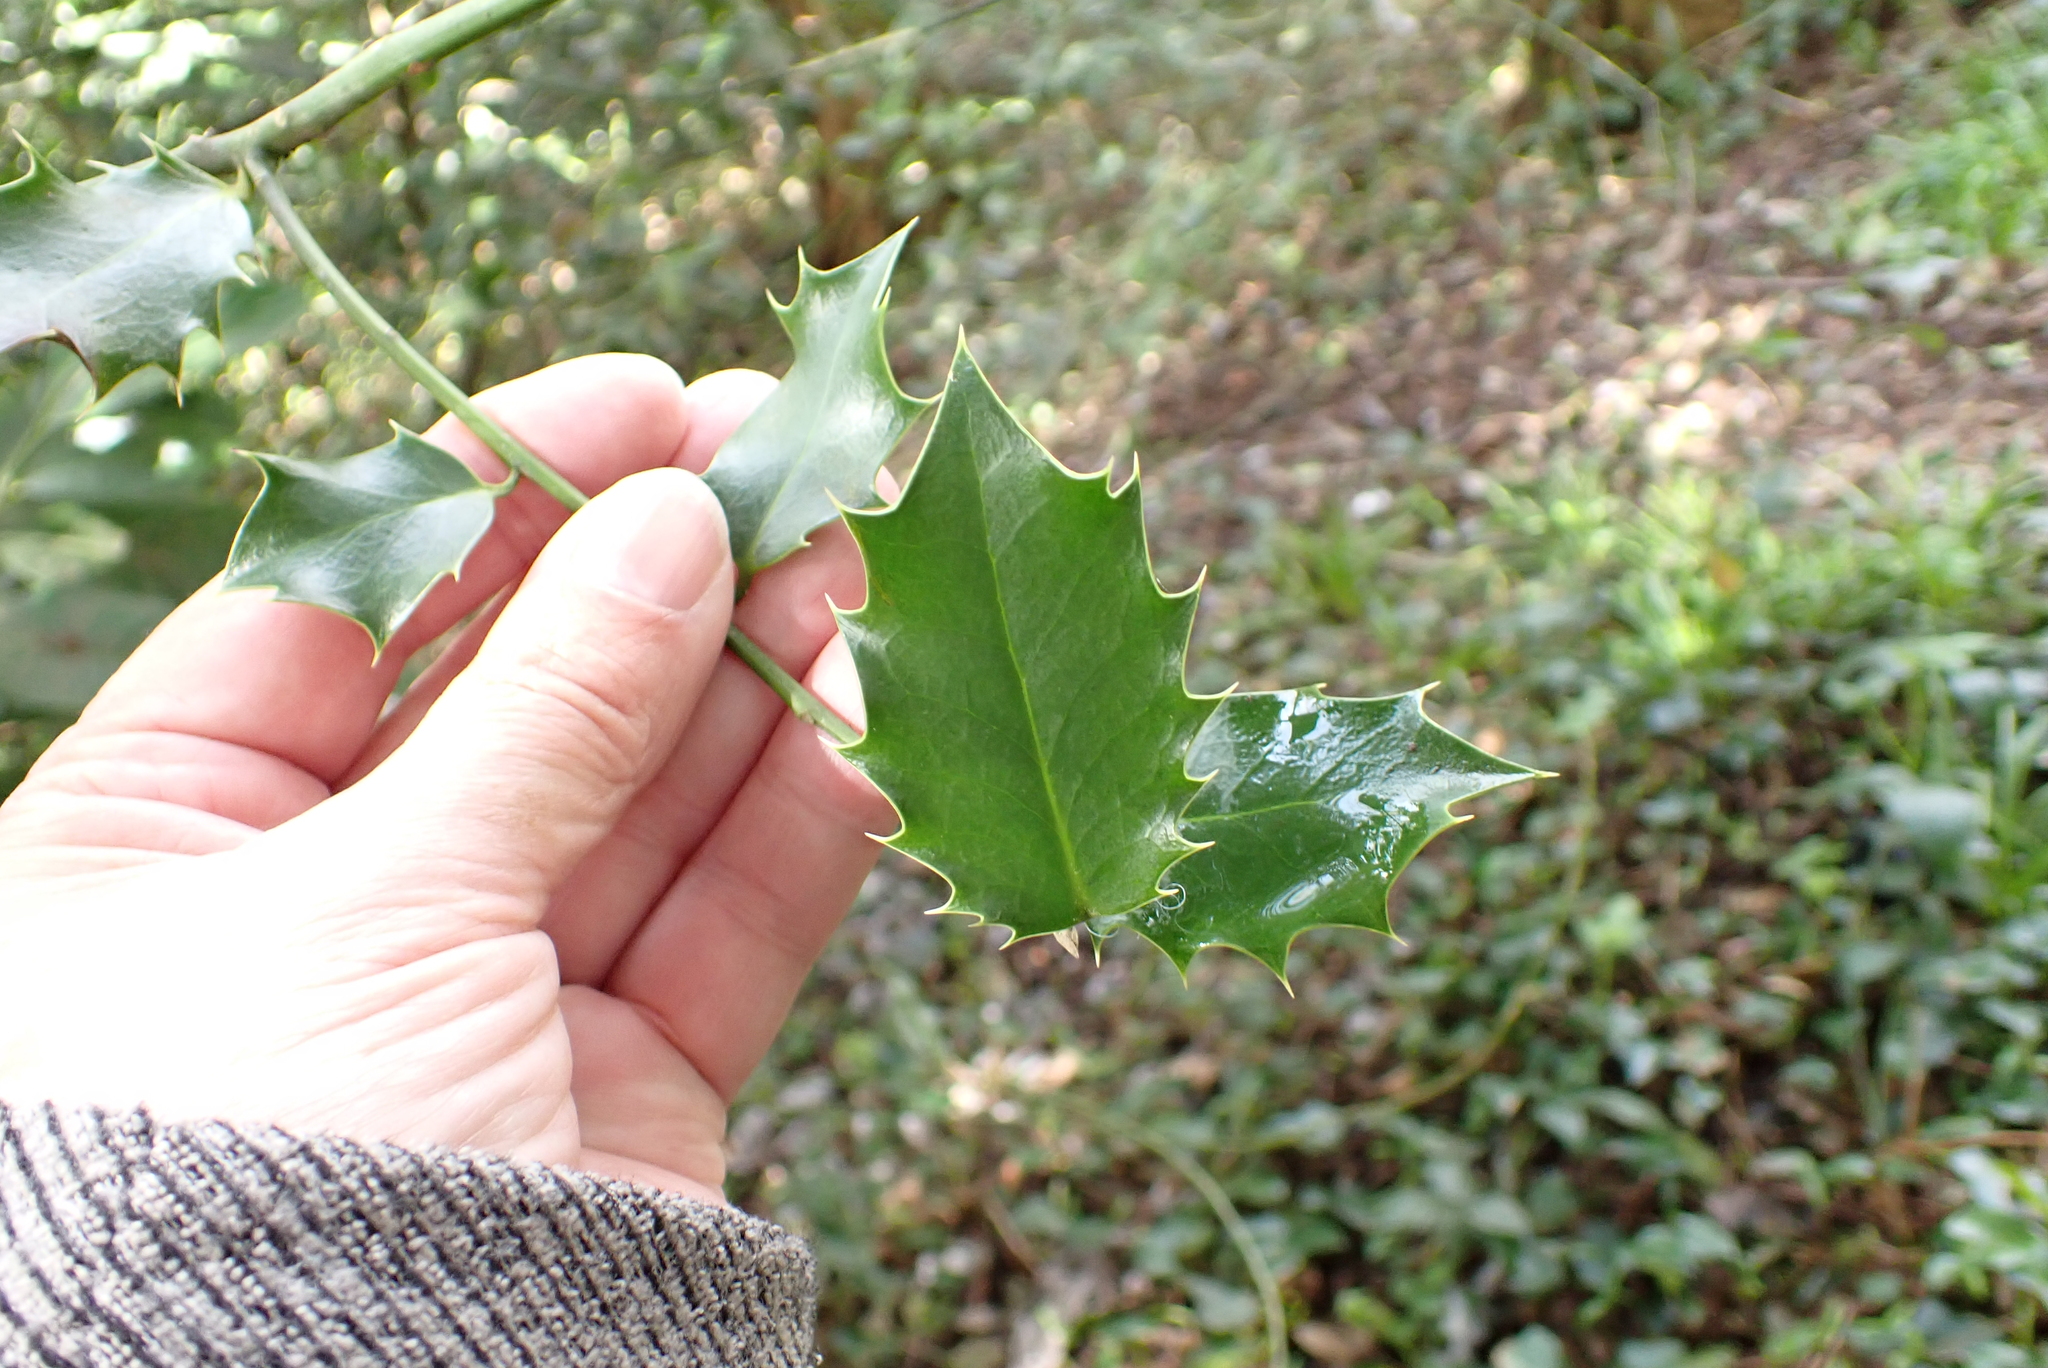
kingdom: Plantae
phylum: Tracheophyta
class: Magnoliopsida
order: Aquifoliales
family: Aquifoliaceae
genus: Ilex
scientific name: Ilex aquifolium
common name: English holly
